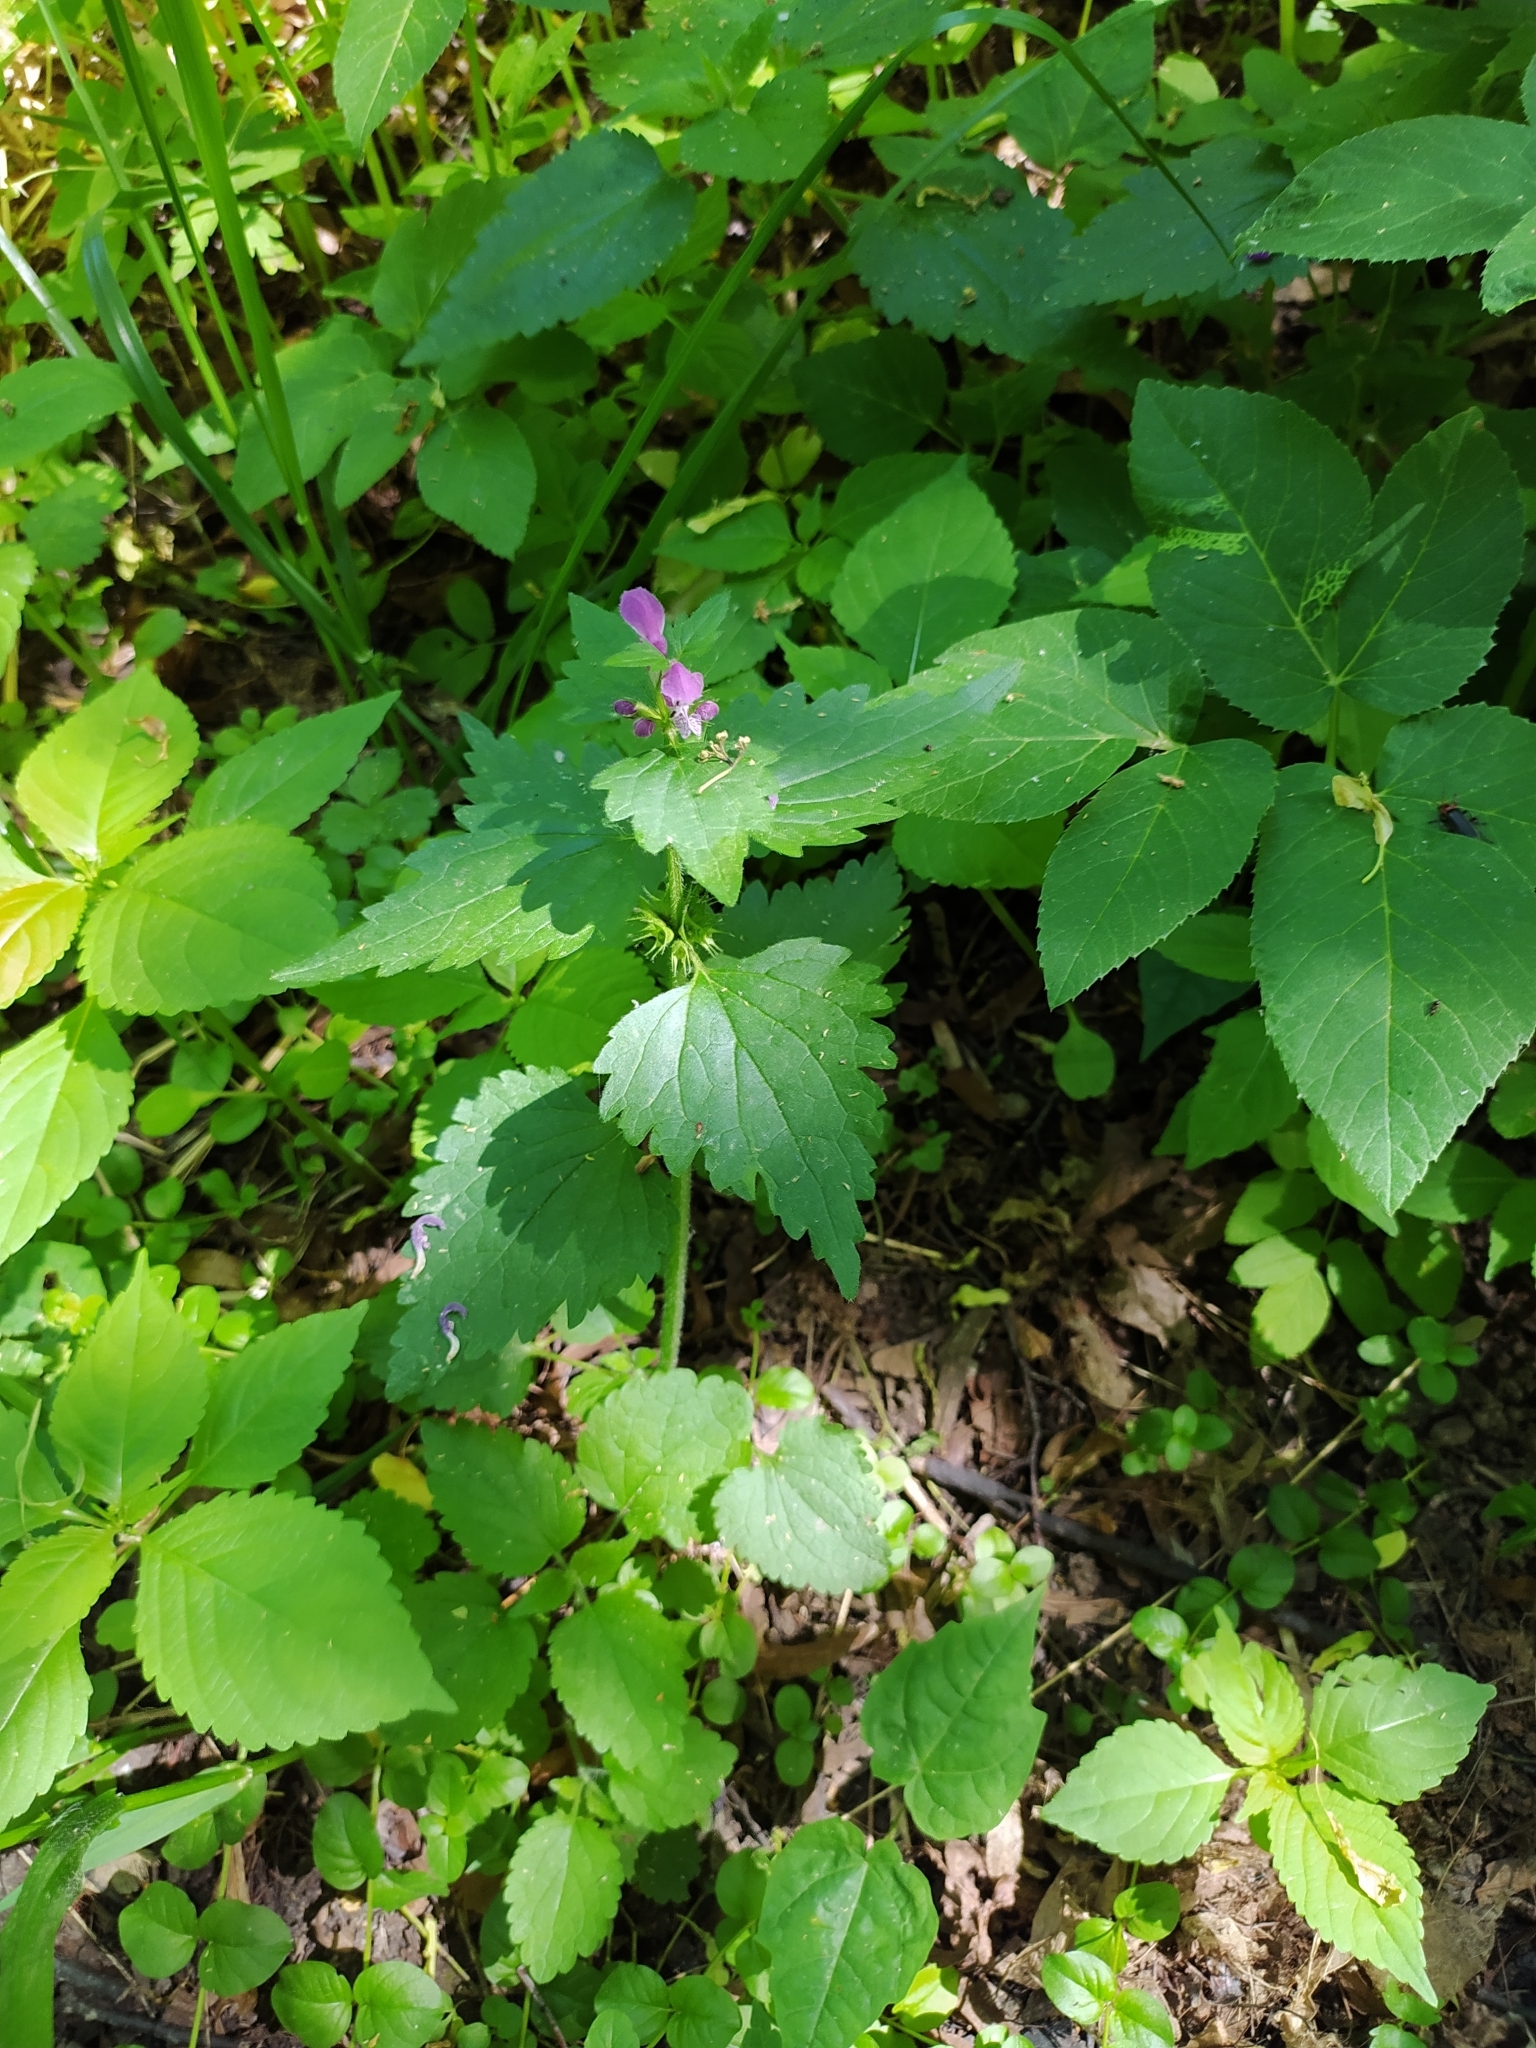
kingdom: Plantae
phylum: Tracheophyta
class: Magnoliopsida
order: Lamiales
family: Lamiaceae
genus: Lamium
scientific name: Lamium maculatum
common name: Spotted dead-nettle
